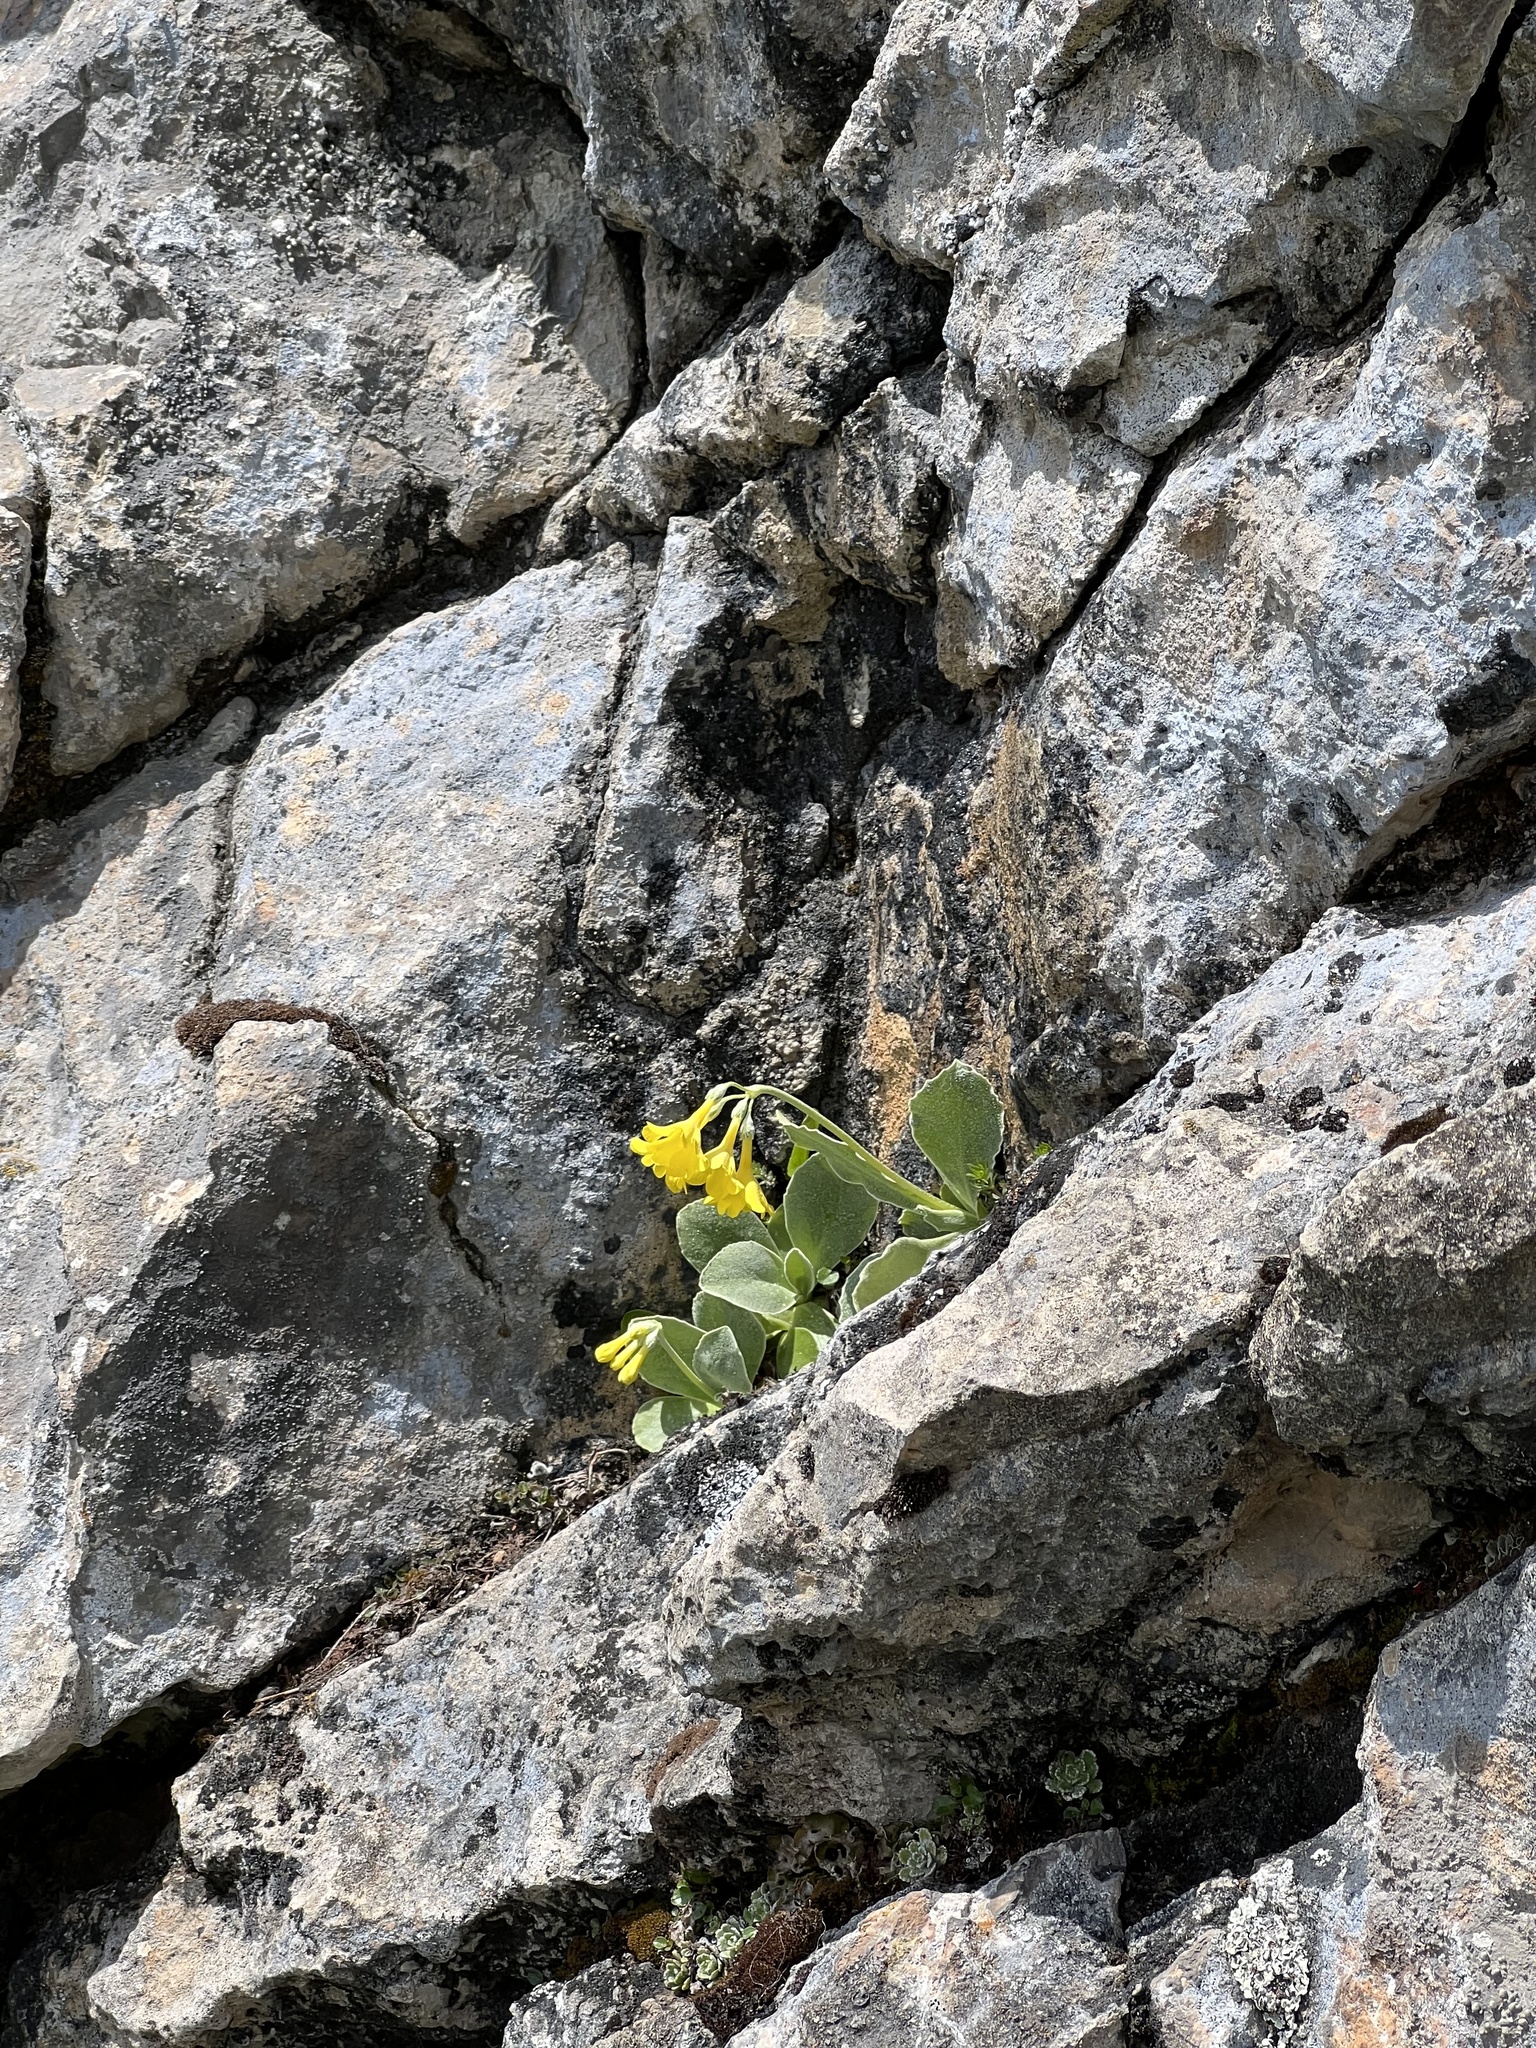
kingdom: Plantae
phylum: Tracheophyta
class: Magnoliopsida
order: Ericales
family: Primulaceae
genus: Primula
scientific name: Primula auricula
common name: Auricula
